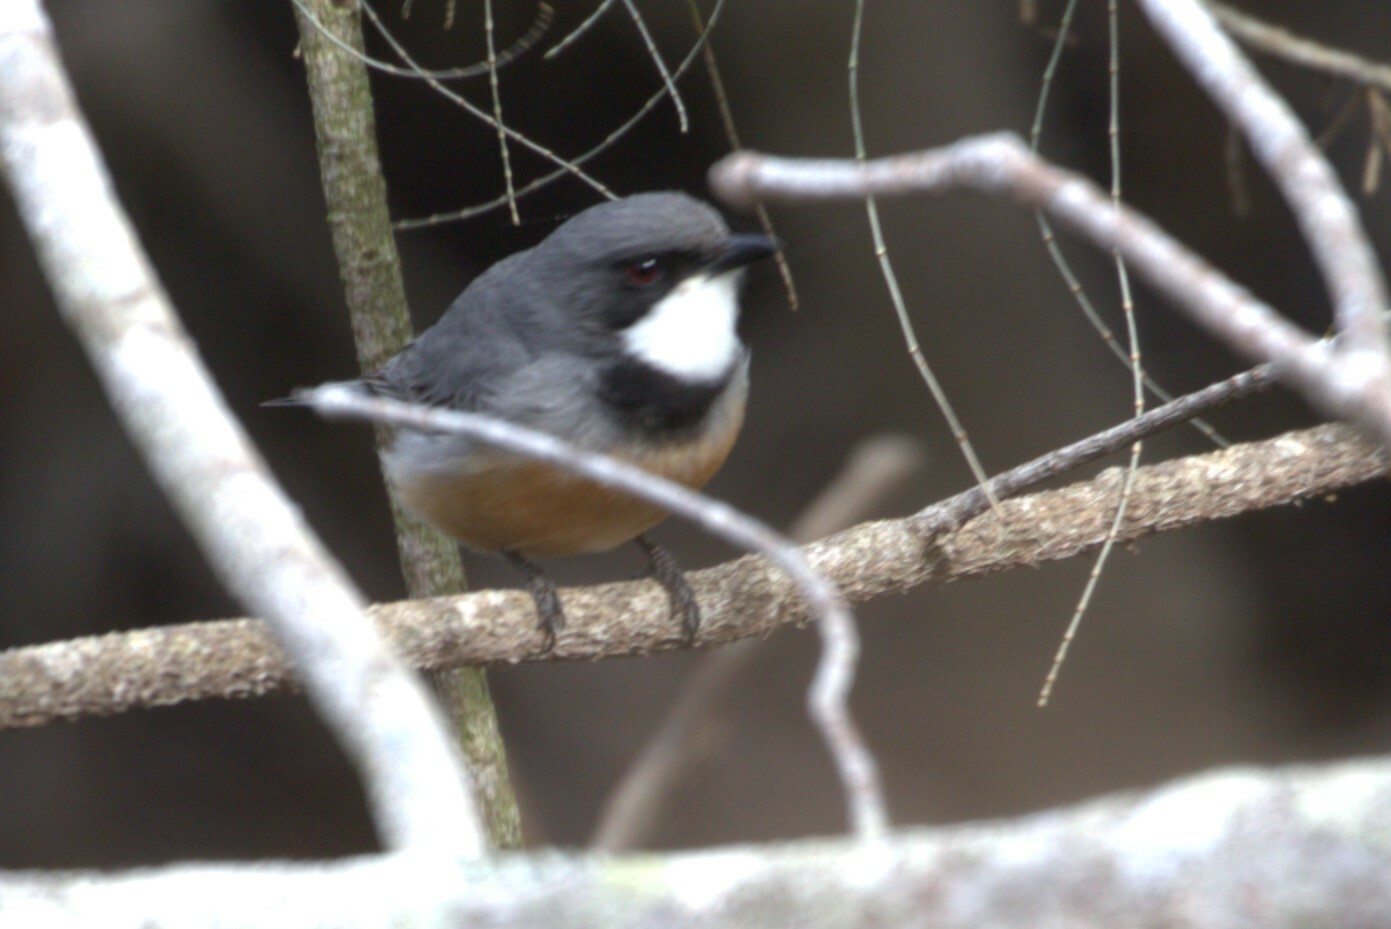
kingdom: Animalia
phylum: Chordata
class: Aves
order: Passeriformes
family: Pachycephalidae
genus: Pachycephala
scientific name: Pachycephala rufiventris
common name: Rufous whistler
